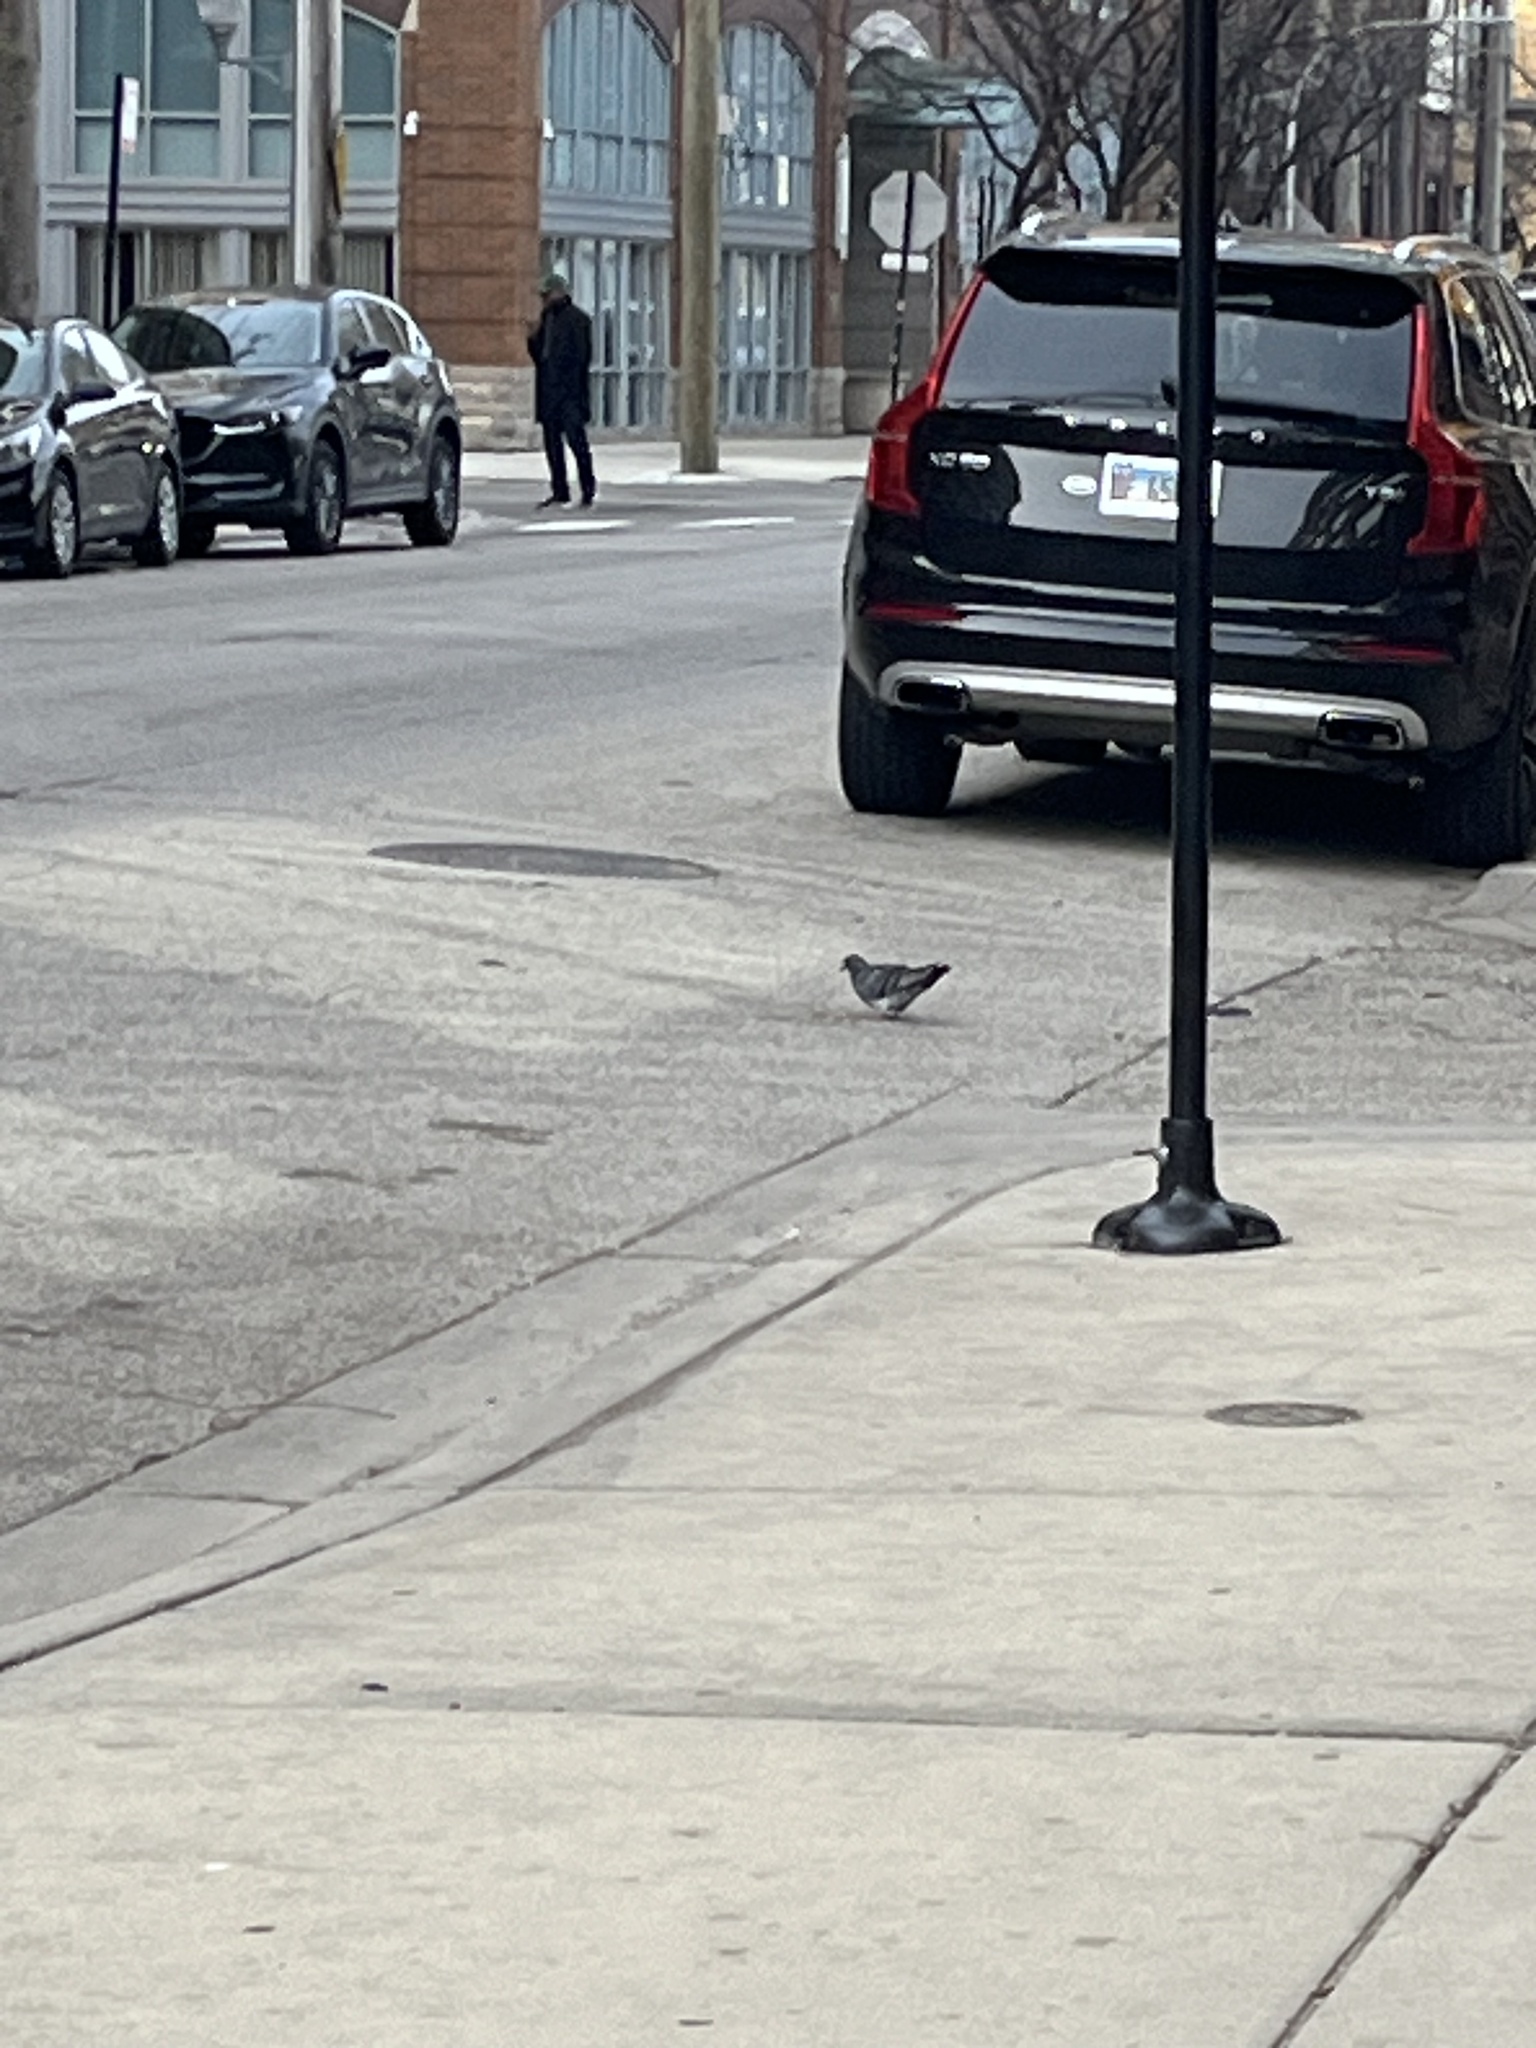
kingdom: Animalia
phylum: Chordata
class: Aves
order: Columbiformes
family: Columbidae
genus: Columba
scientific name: Columba livia
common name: Rock pigeon
